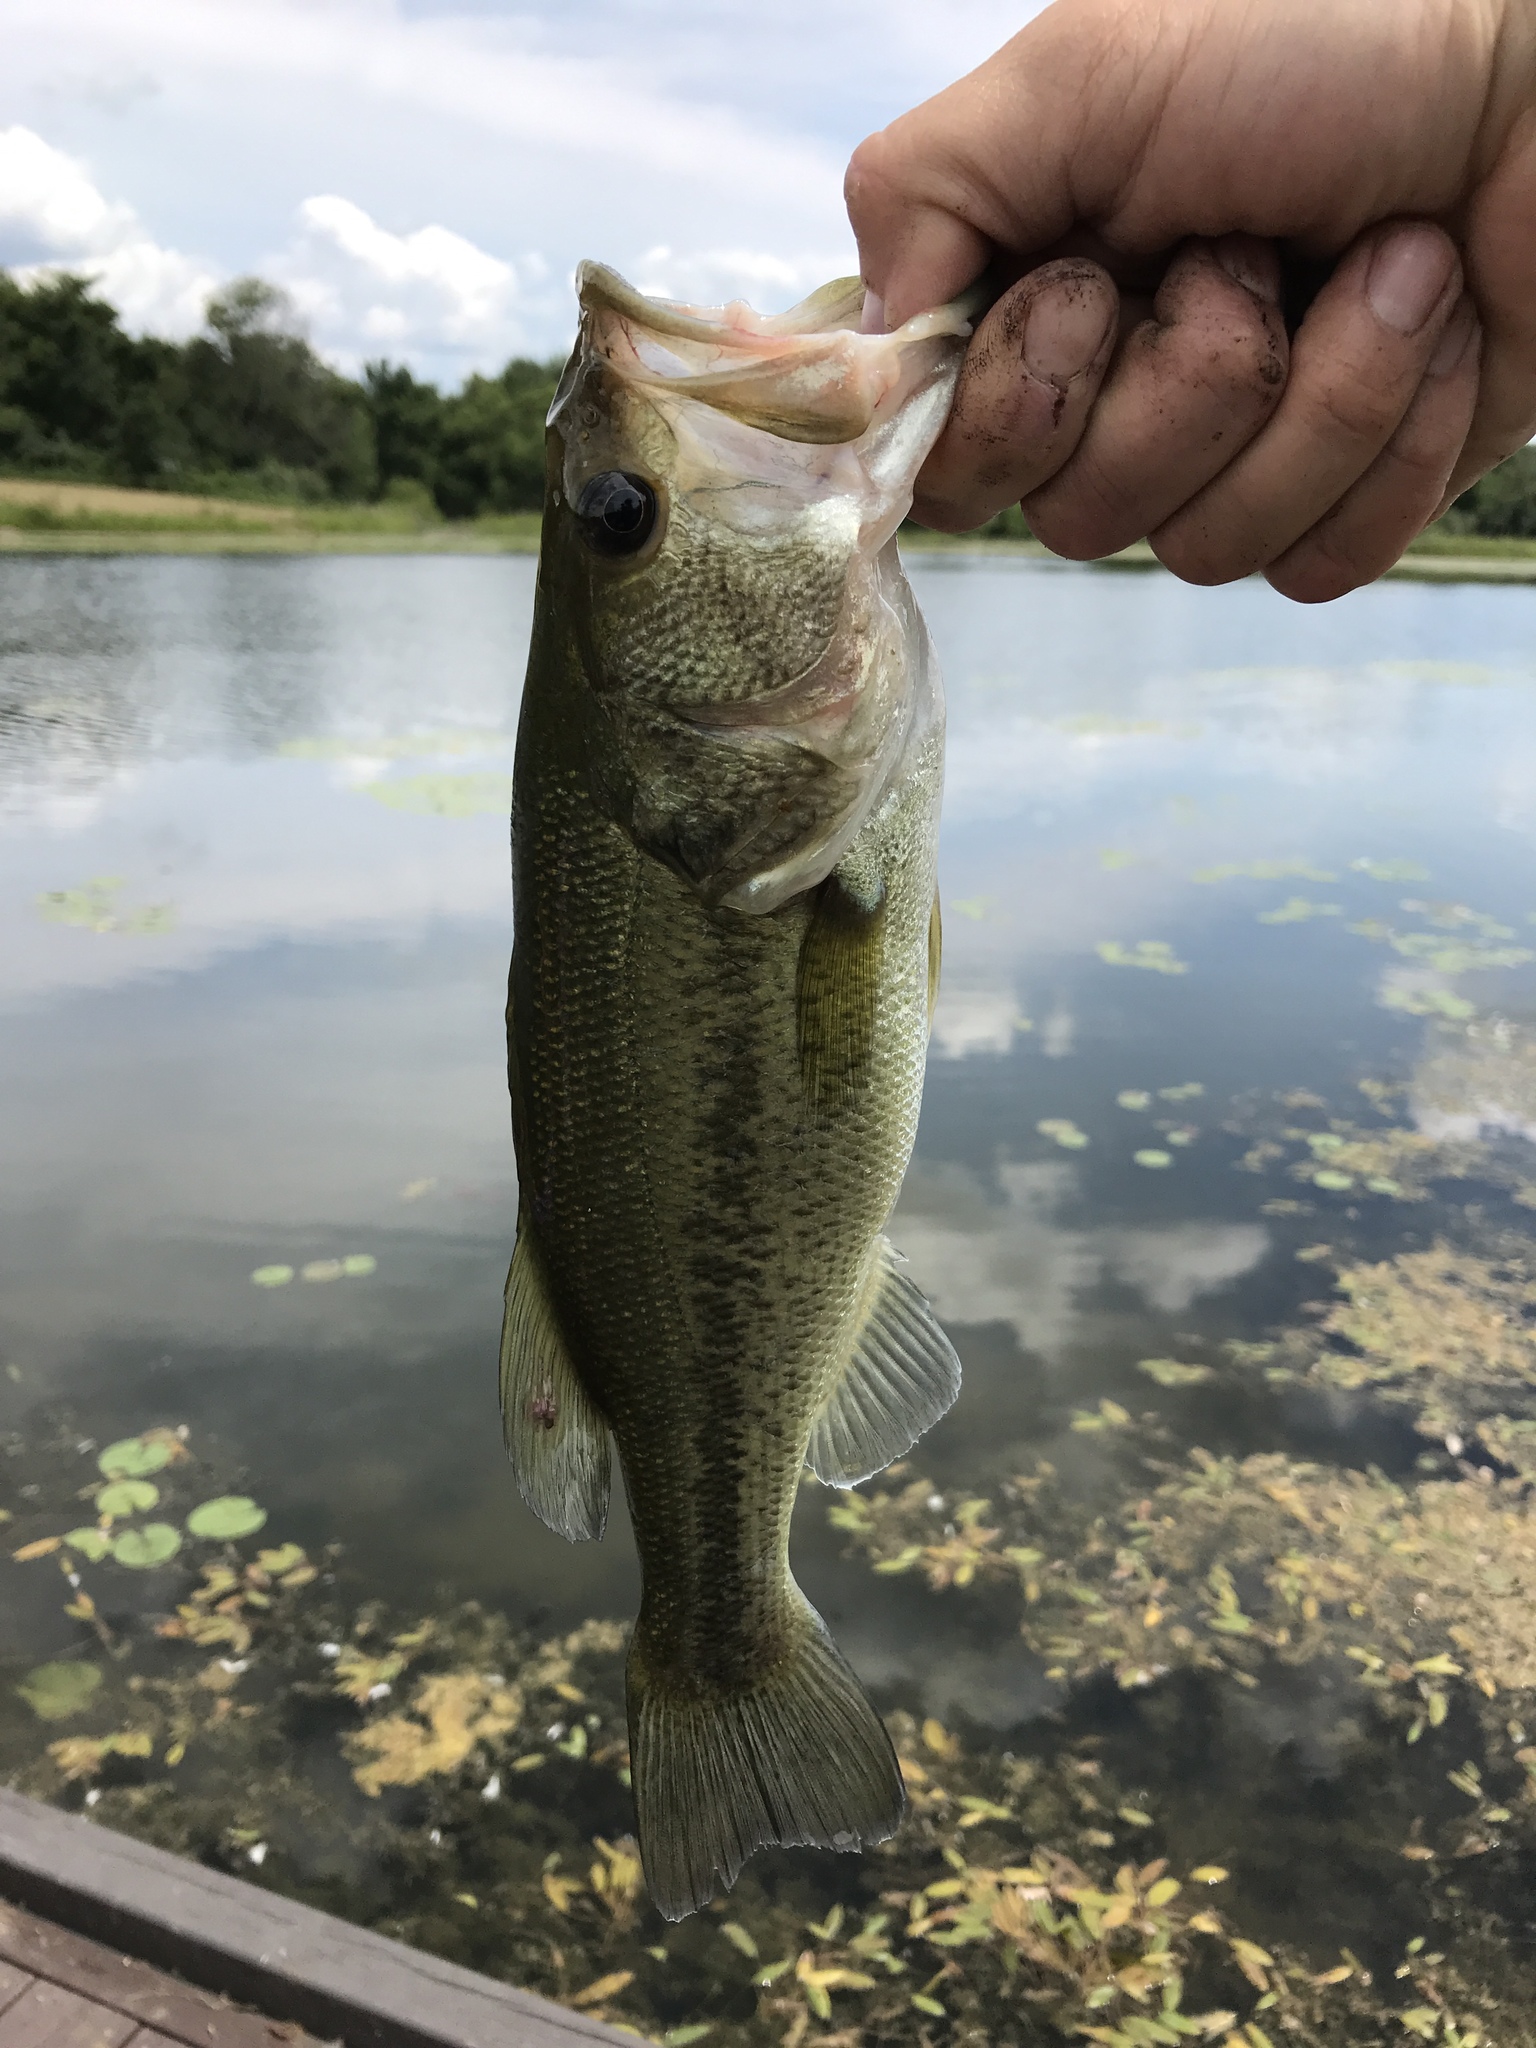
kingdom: Animalia
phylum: Chordata
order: Perciformes
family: Centrarchidae
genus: Micropterus
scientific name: Micropterus
